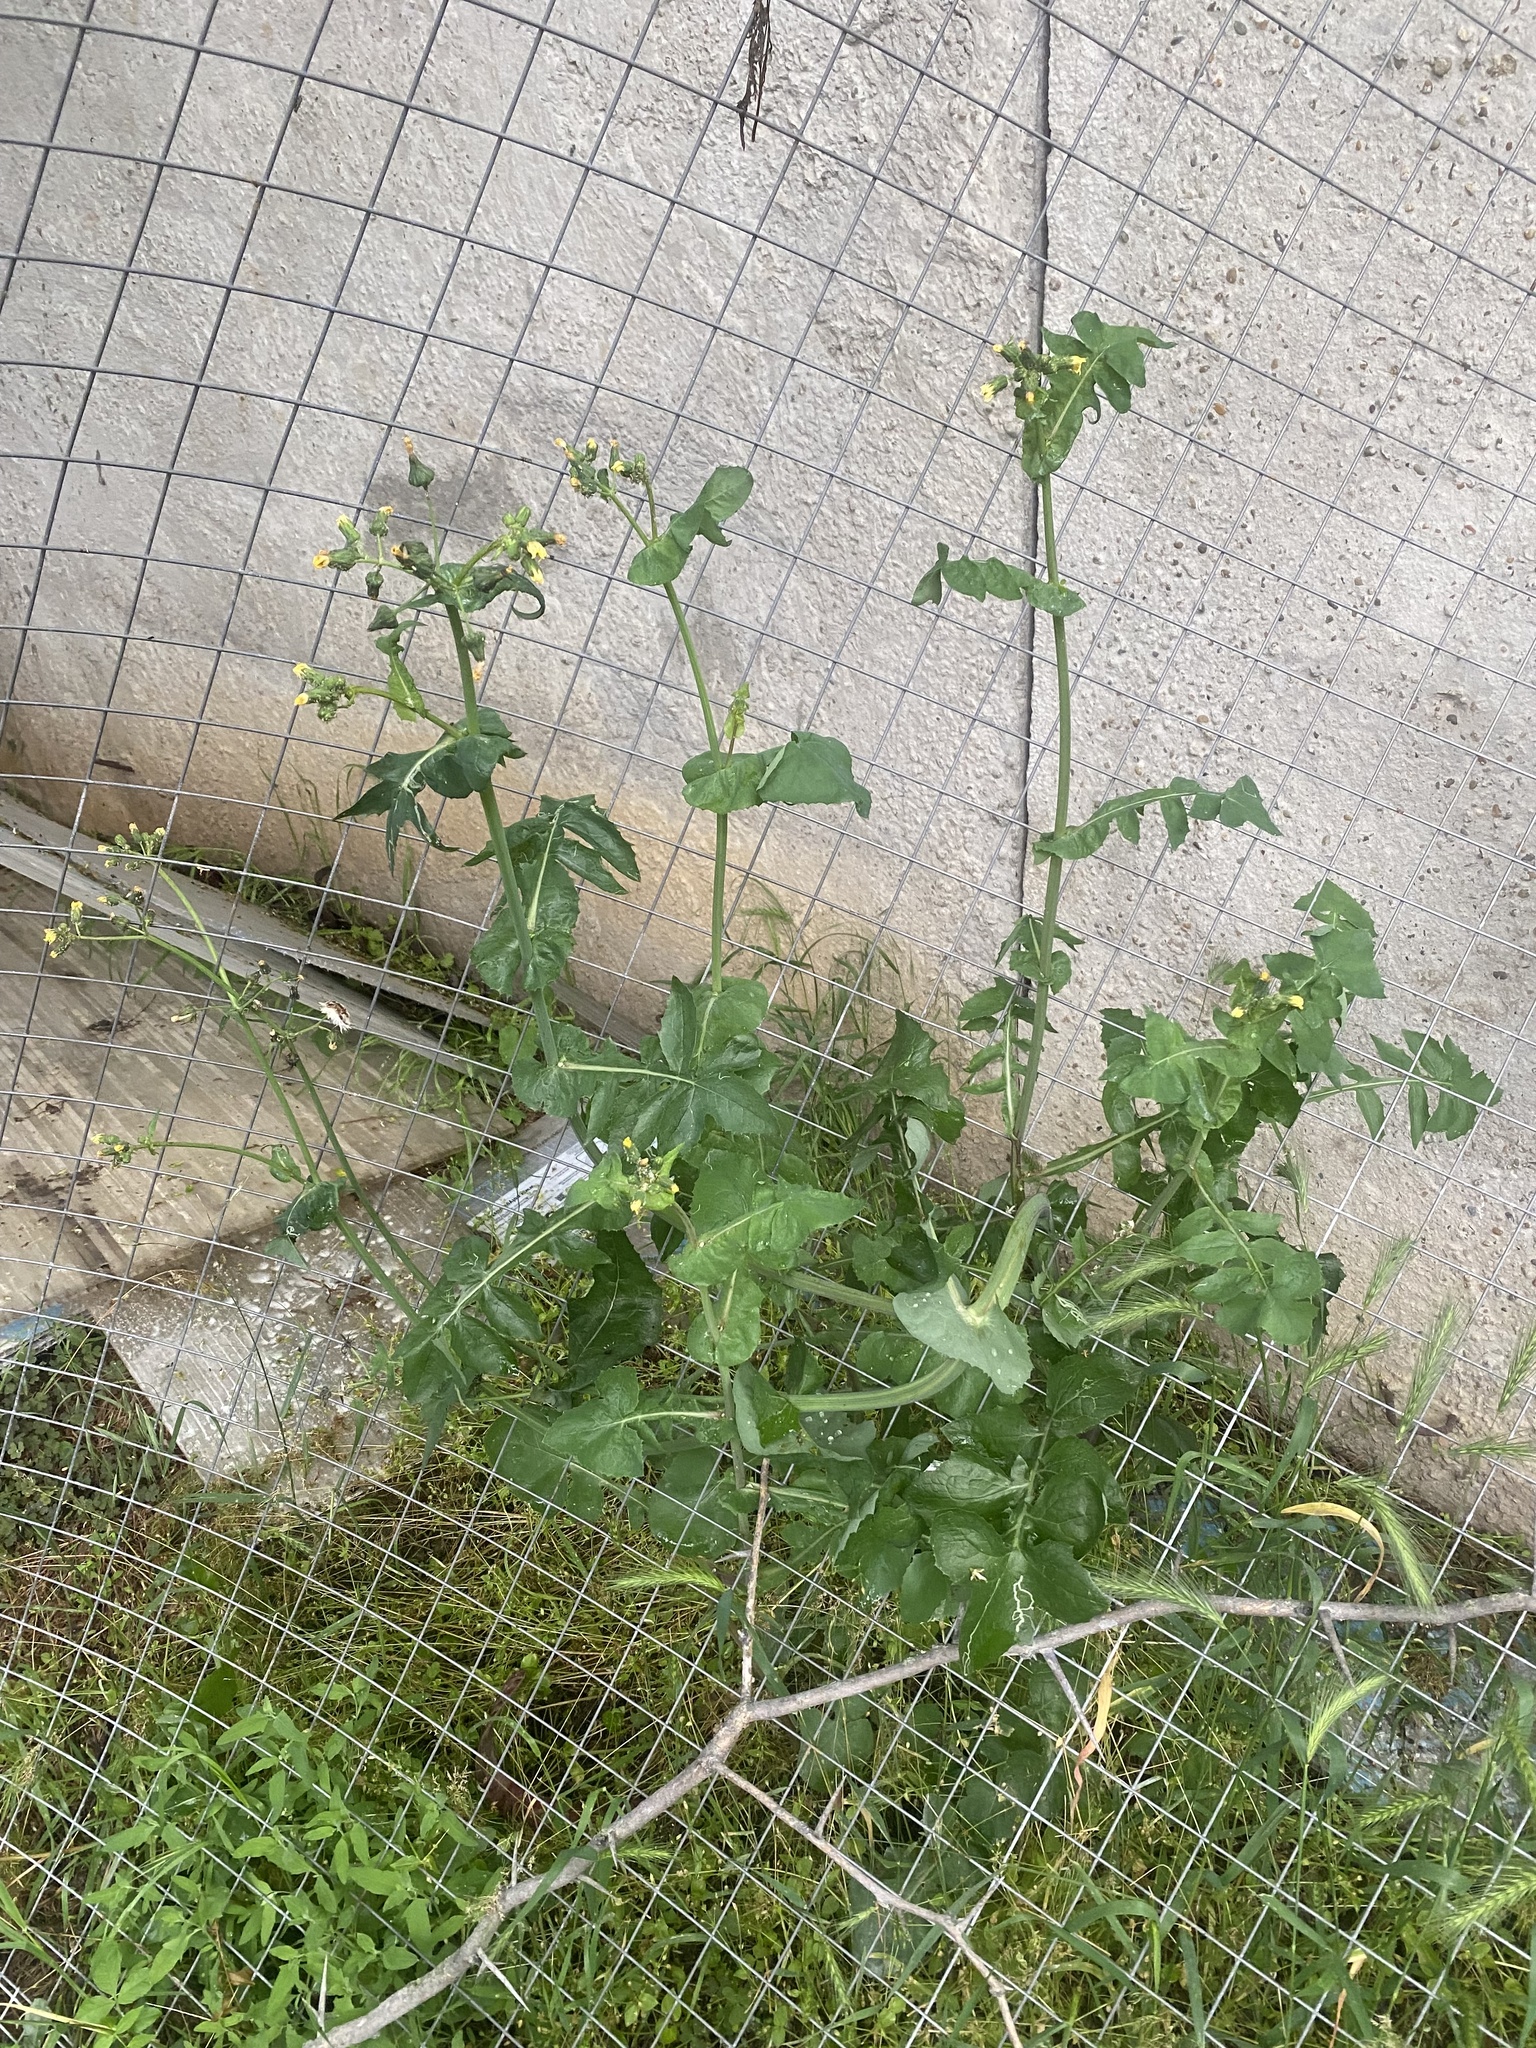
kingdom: Plantae
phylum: Tracheophyta
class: Magnoliopsida
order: Asterales
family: Asteraceae
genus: Sonchus
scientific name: Sonchus oleraceus
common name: Common sowthistle
